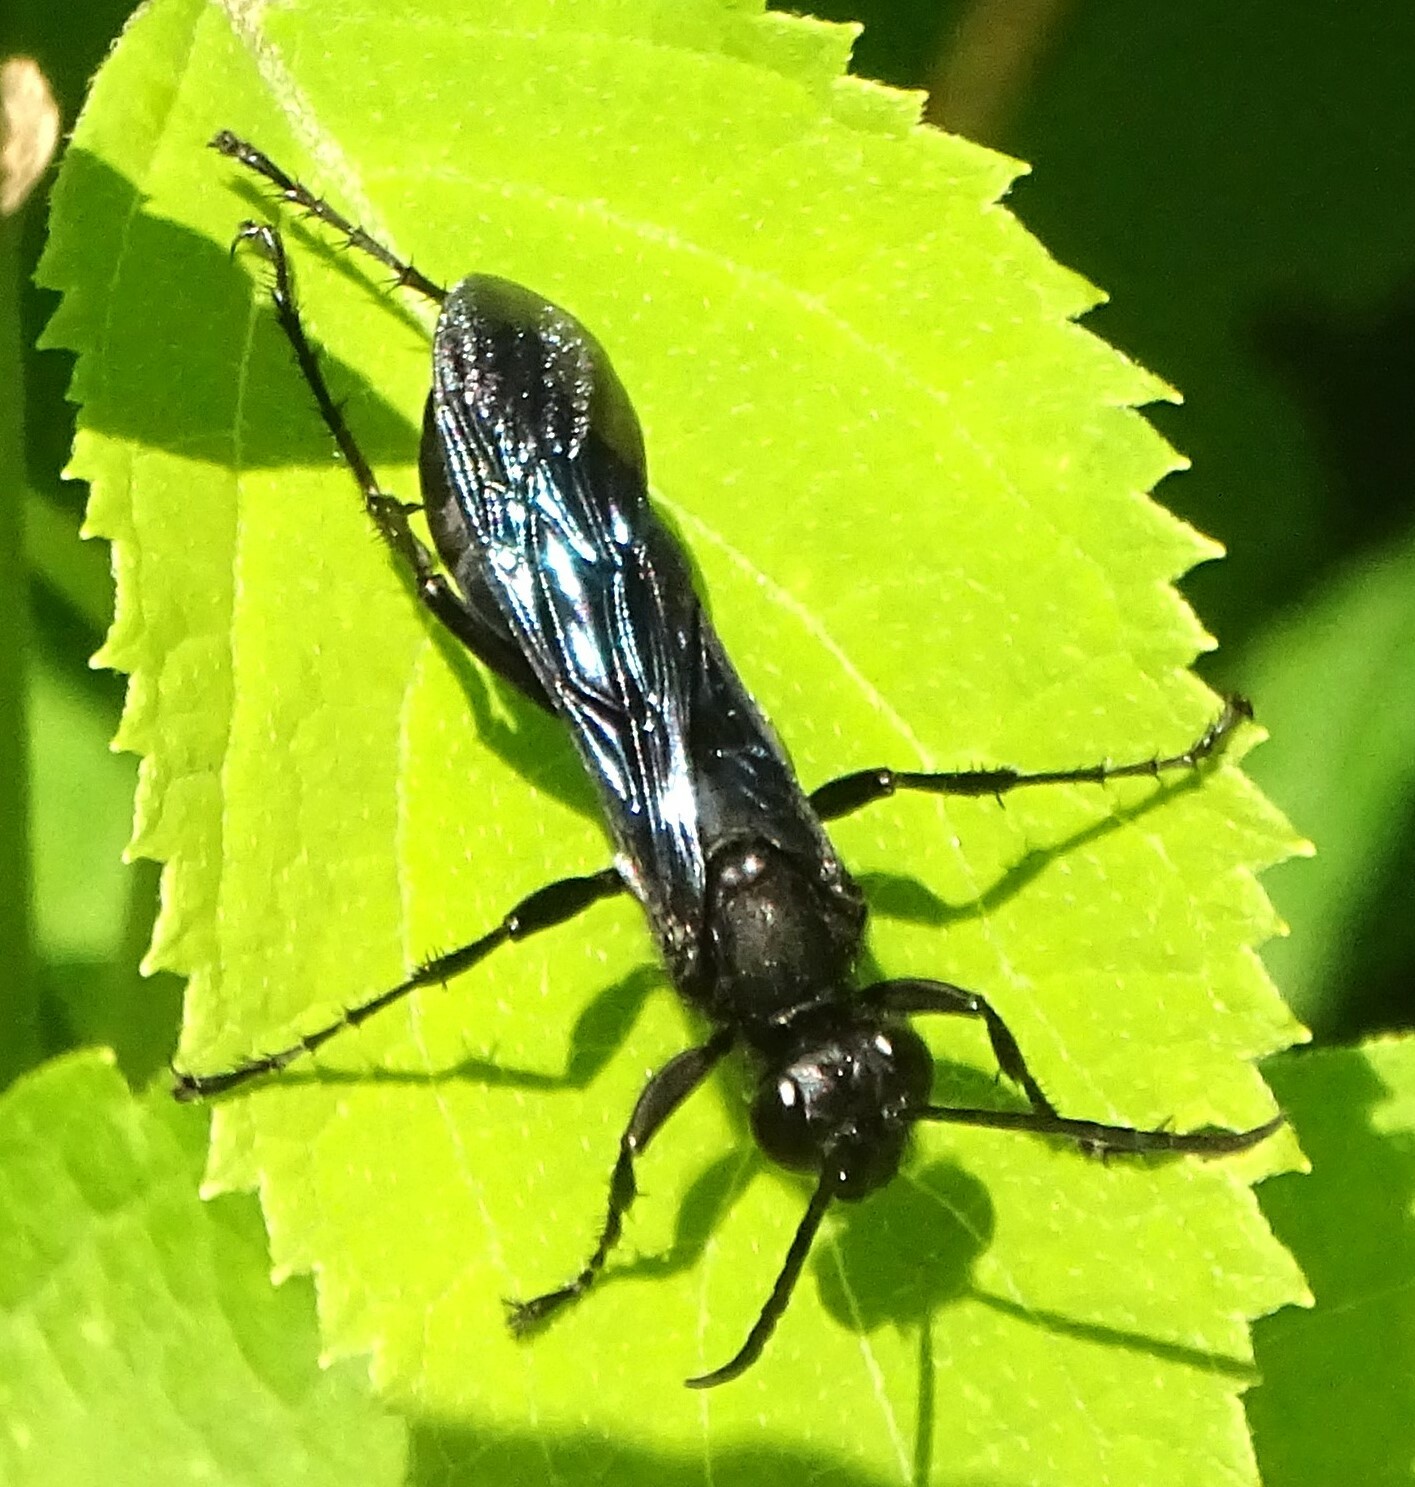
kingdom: Animalia
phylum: Arthropoda
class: Insecta
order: Hymenoptera
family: Sphecidae
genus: Sphex
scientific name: Sphex pensylvanicus
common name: Great black digger wasp
